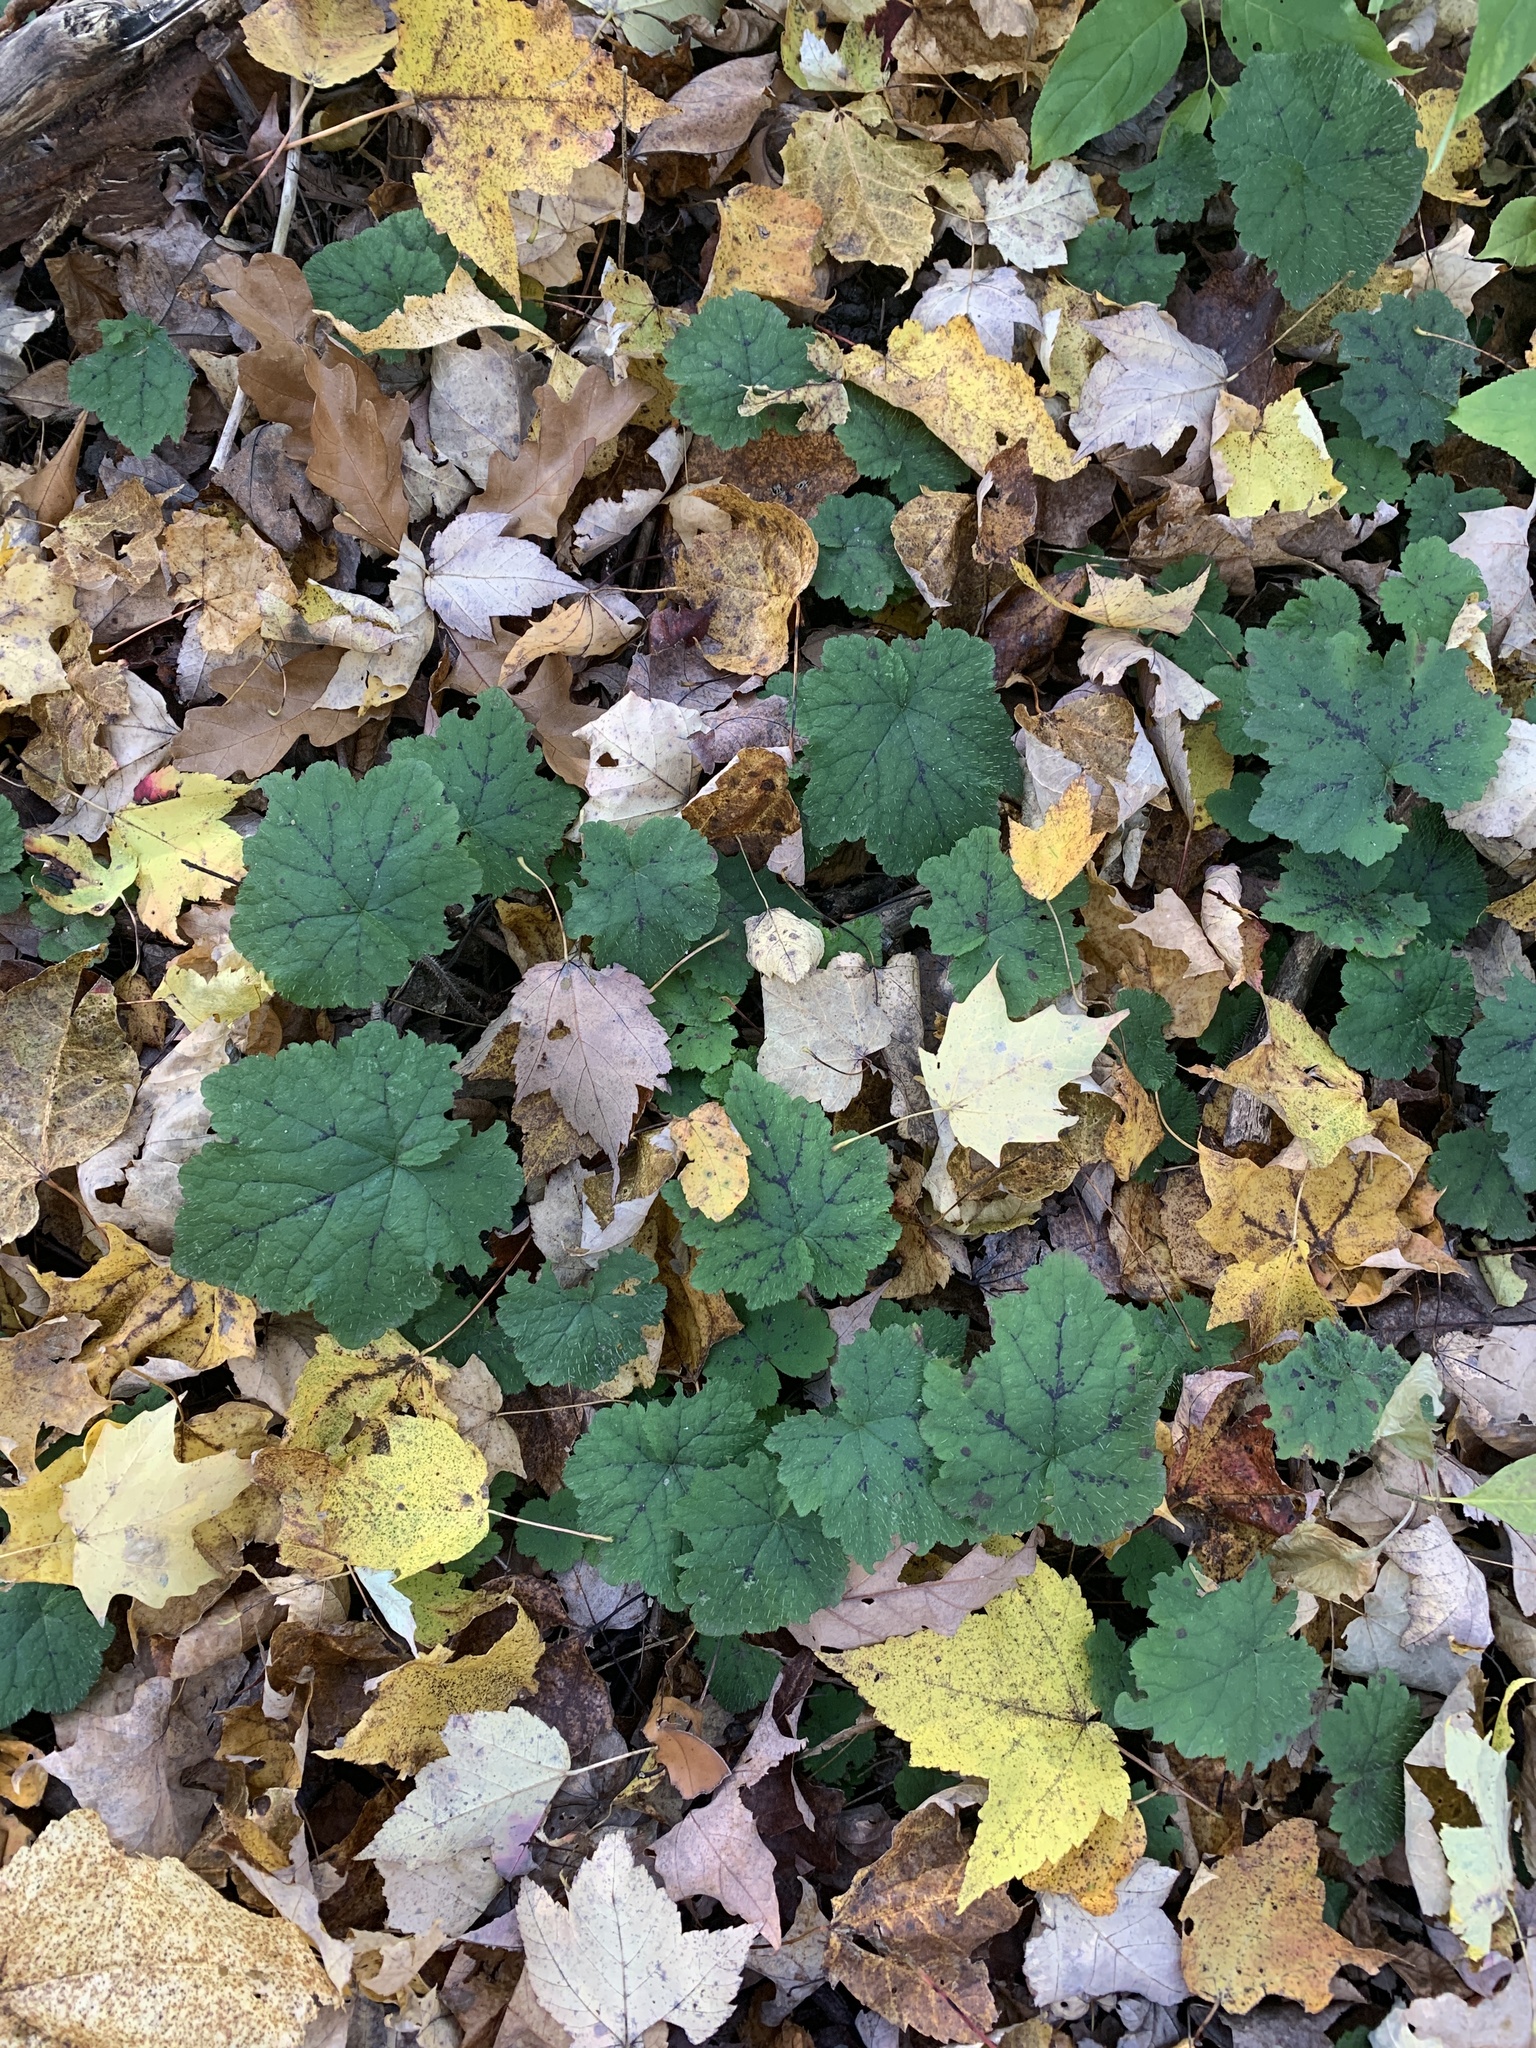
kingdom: Plantae
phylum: Tracheophyta
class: Magnoliopsida
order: Saxifragales
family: Saxifragaceae
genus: Tiarella
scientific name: Tiarella stolonifera
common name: Stoloniferous foamflower
